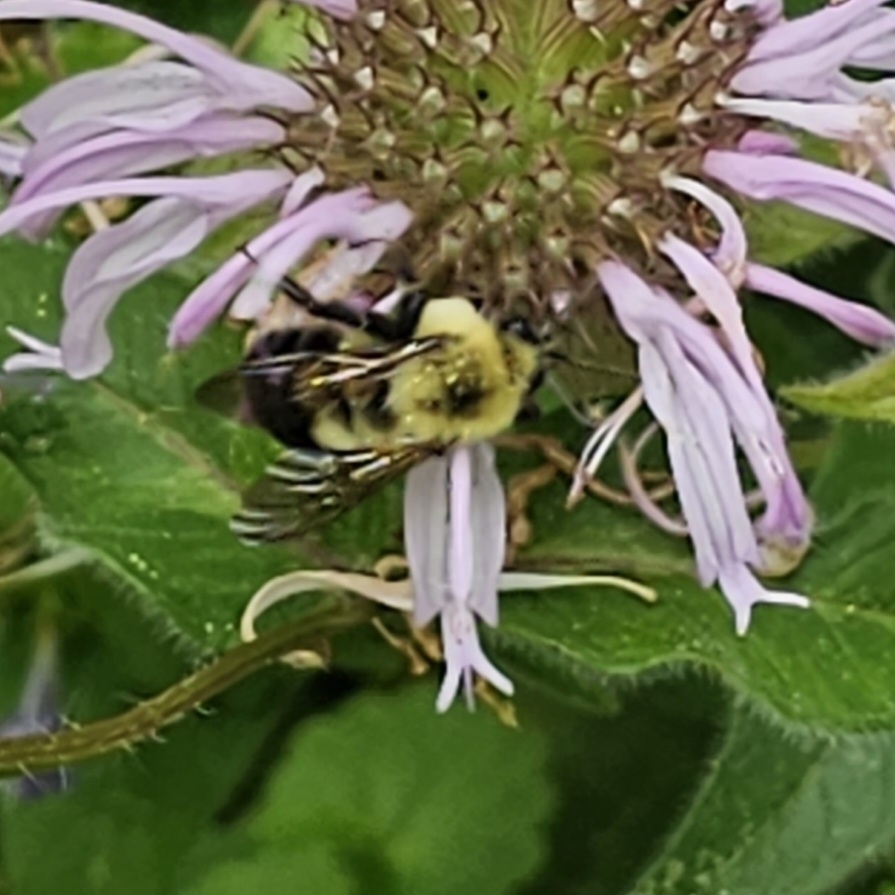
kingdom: Animalia
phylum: Arthropoda
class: Insecta
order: Hymenoptera
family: Apidae
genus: Bombus
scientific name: Bombus bimaculatus
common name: Two-spotted bumble bee
